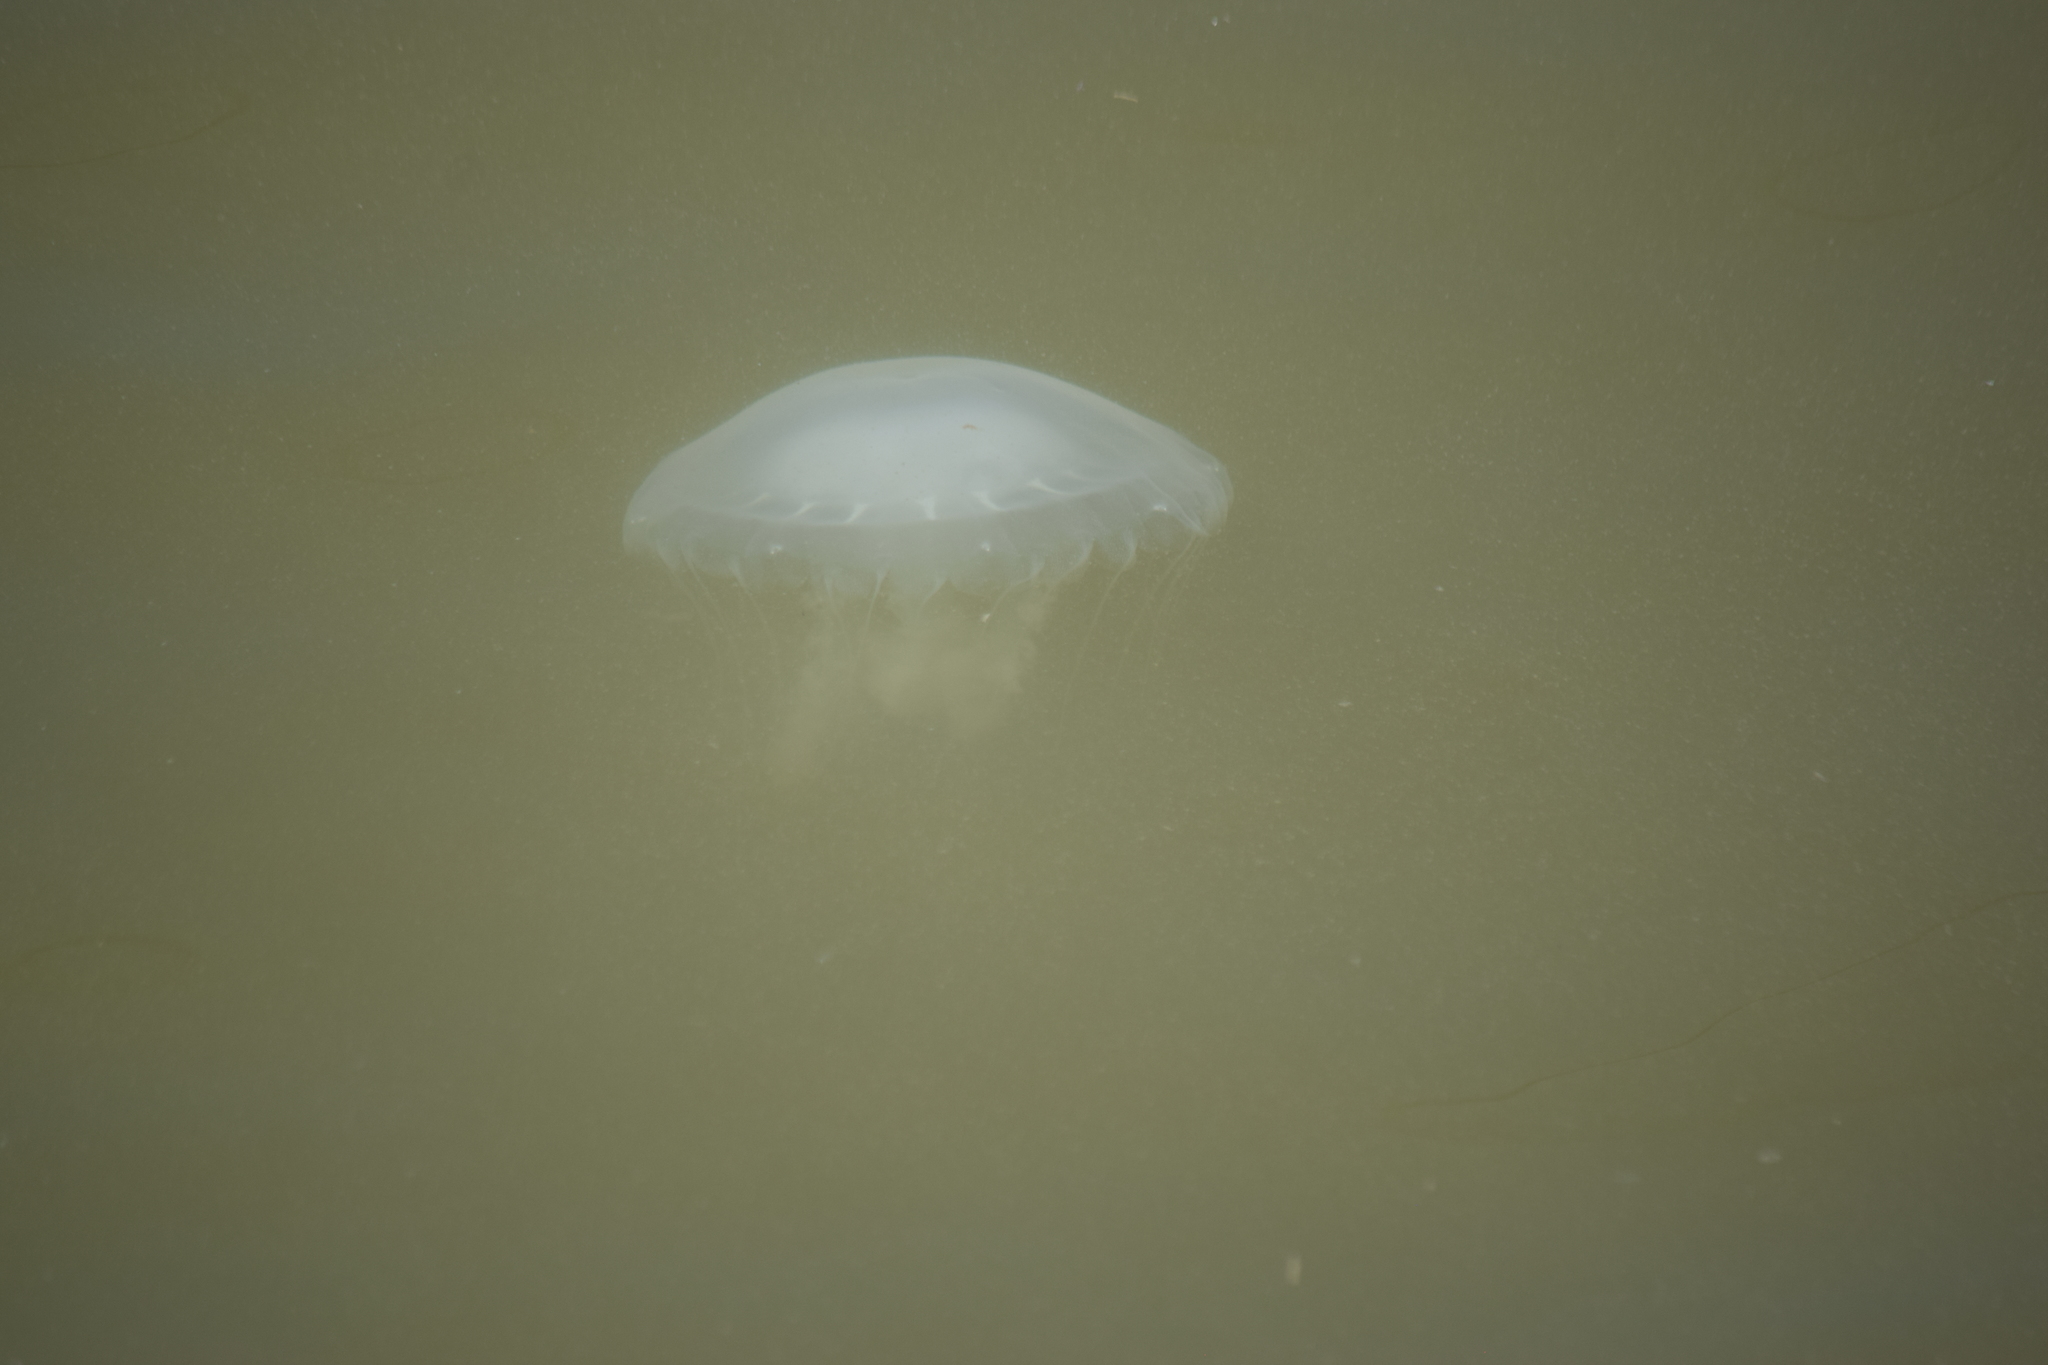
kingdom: Animalia
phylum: Cnidaria
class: Scyphozoa
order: Semaeostomeae
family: Pelagiidae
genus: Chrysaora
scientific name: Chrysaora chesapeakei
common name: Bay nettle
